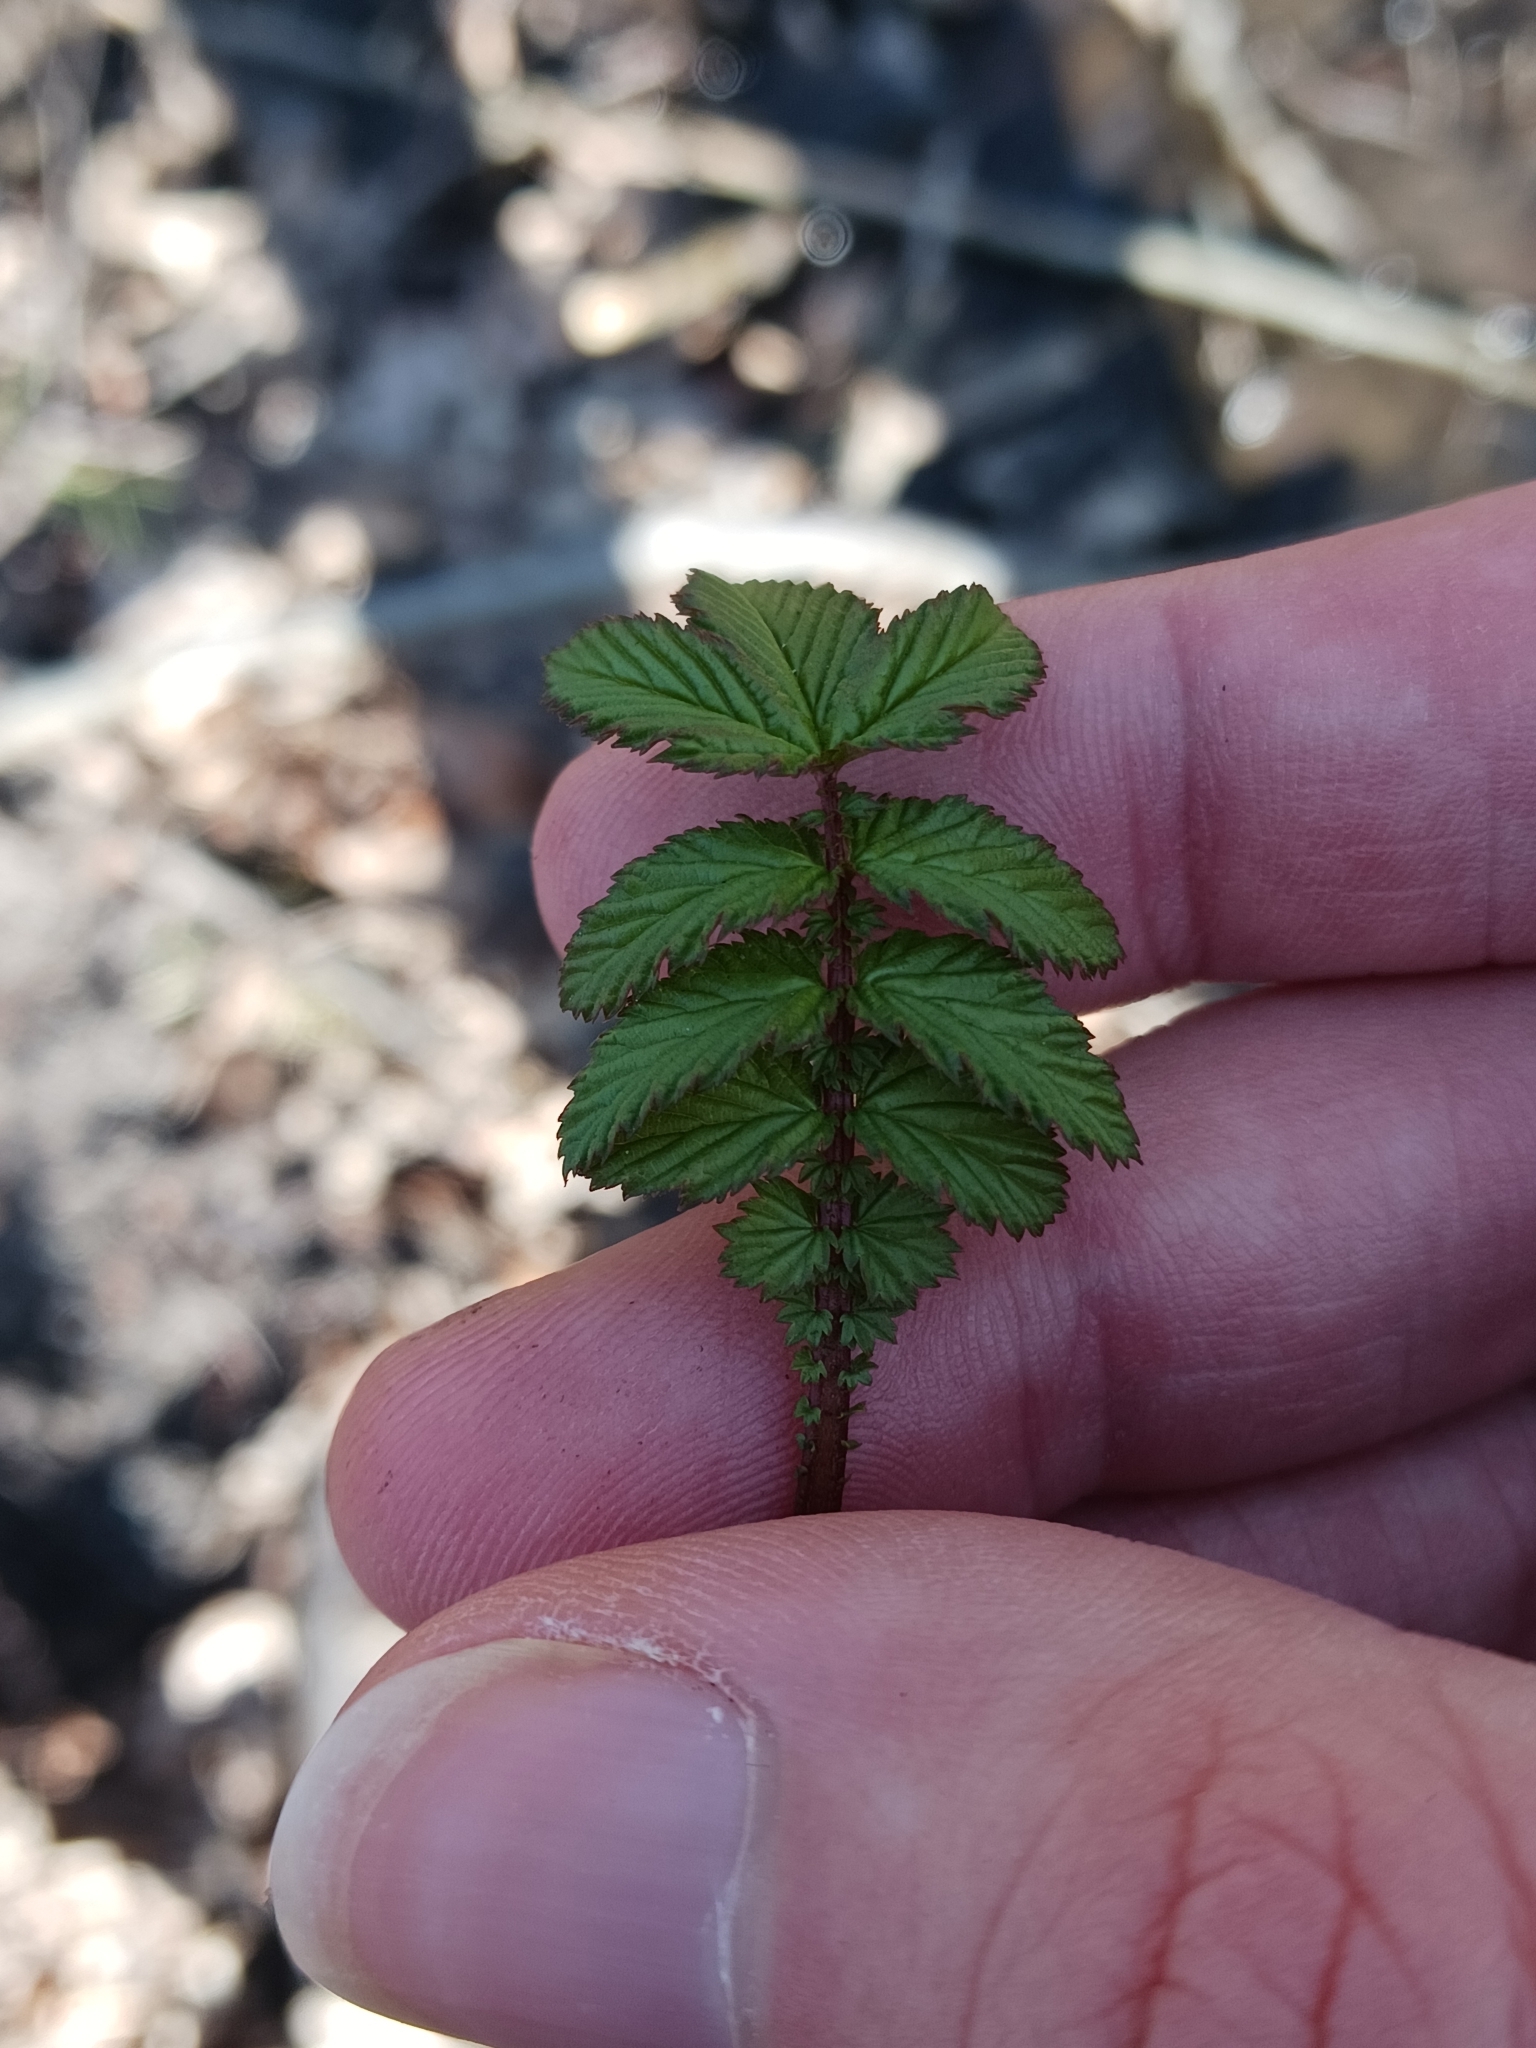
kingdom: Plantae
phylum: Tracheophyta
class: Magnoliopsida
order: Rosales
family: Rosaceae
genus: Filipendula
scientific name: Filipendula ulmaria
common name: Meadowsweet
